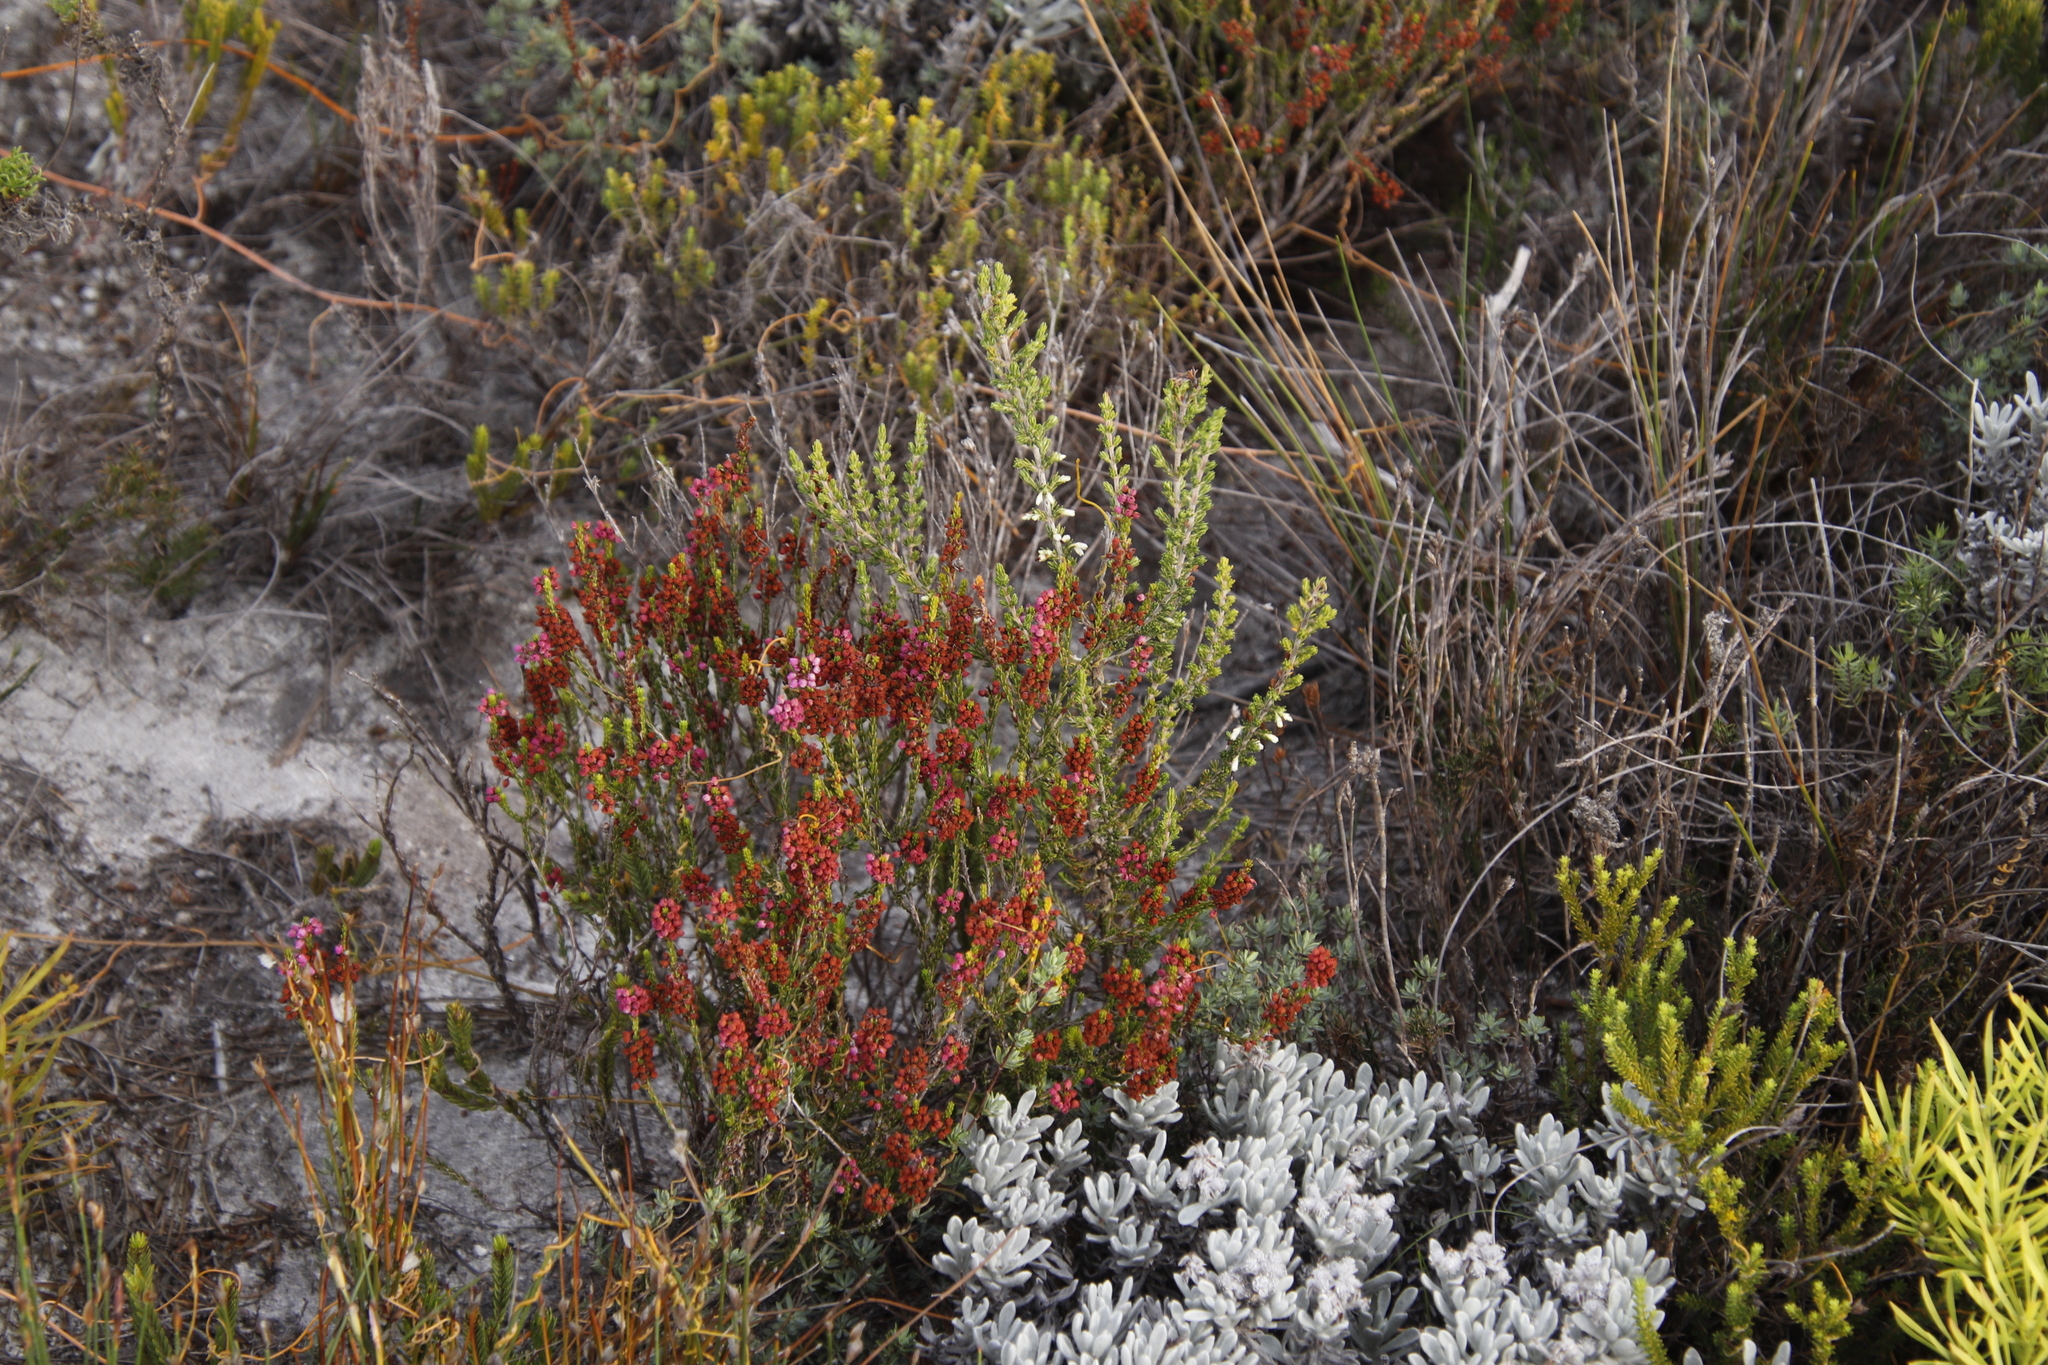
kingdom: Plantae
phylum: Tracheophyta
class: Magnoliopsida
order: Ericales
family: Ericaceae
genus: Erica
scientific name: Erica pulchella
